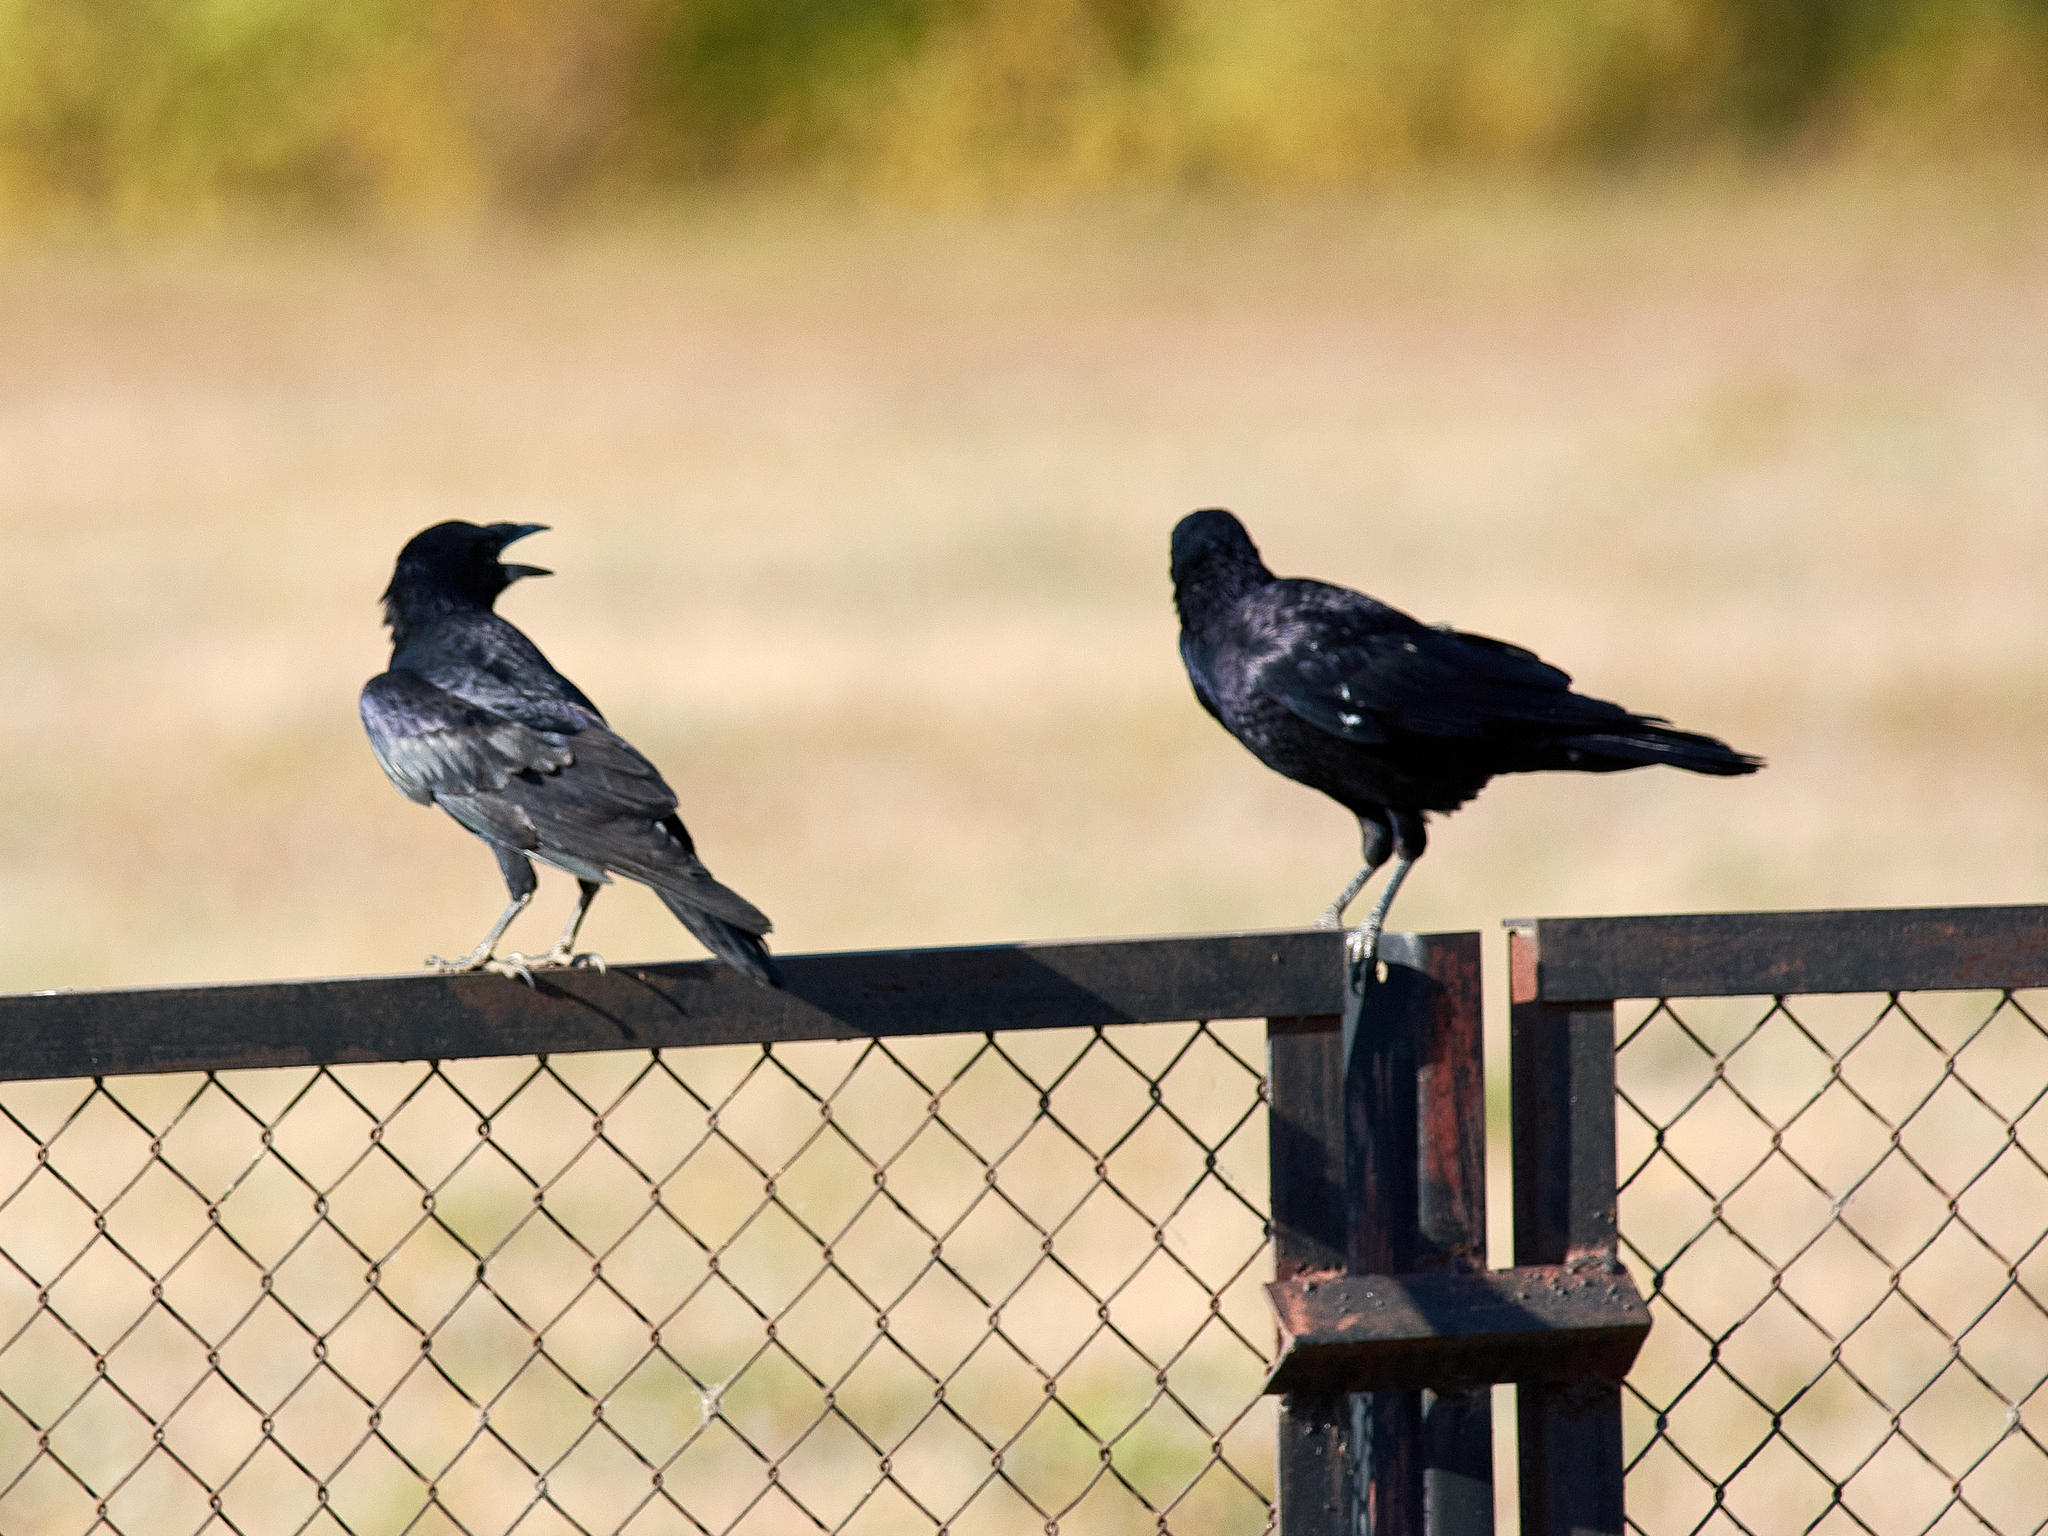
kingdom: Animalia
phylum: Chordata
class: Aves
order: Passeriformes
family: Corvidae
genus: Corvus
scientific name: Corvus frugilegus
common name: Rook
